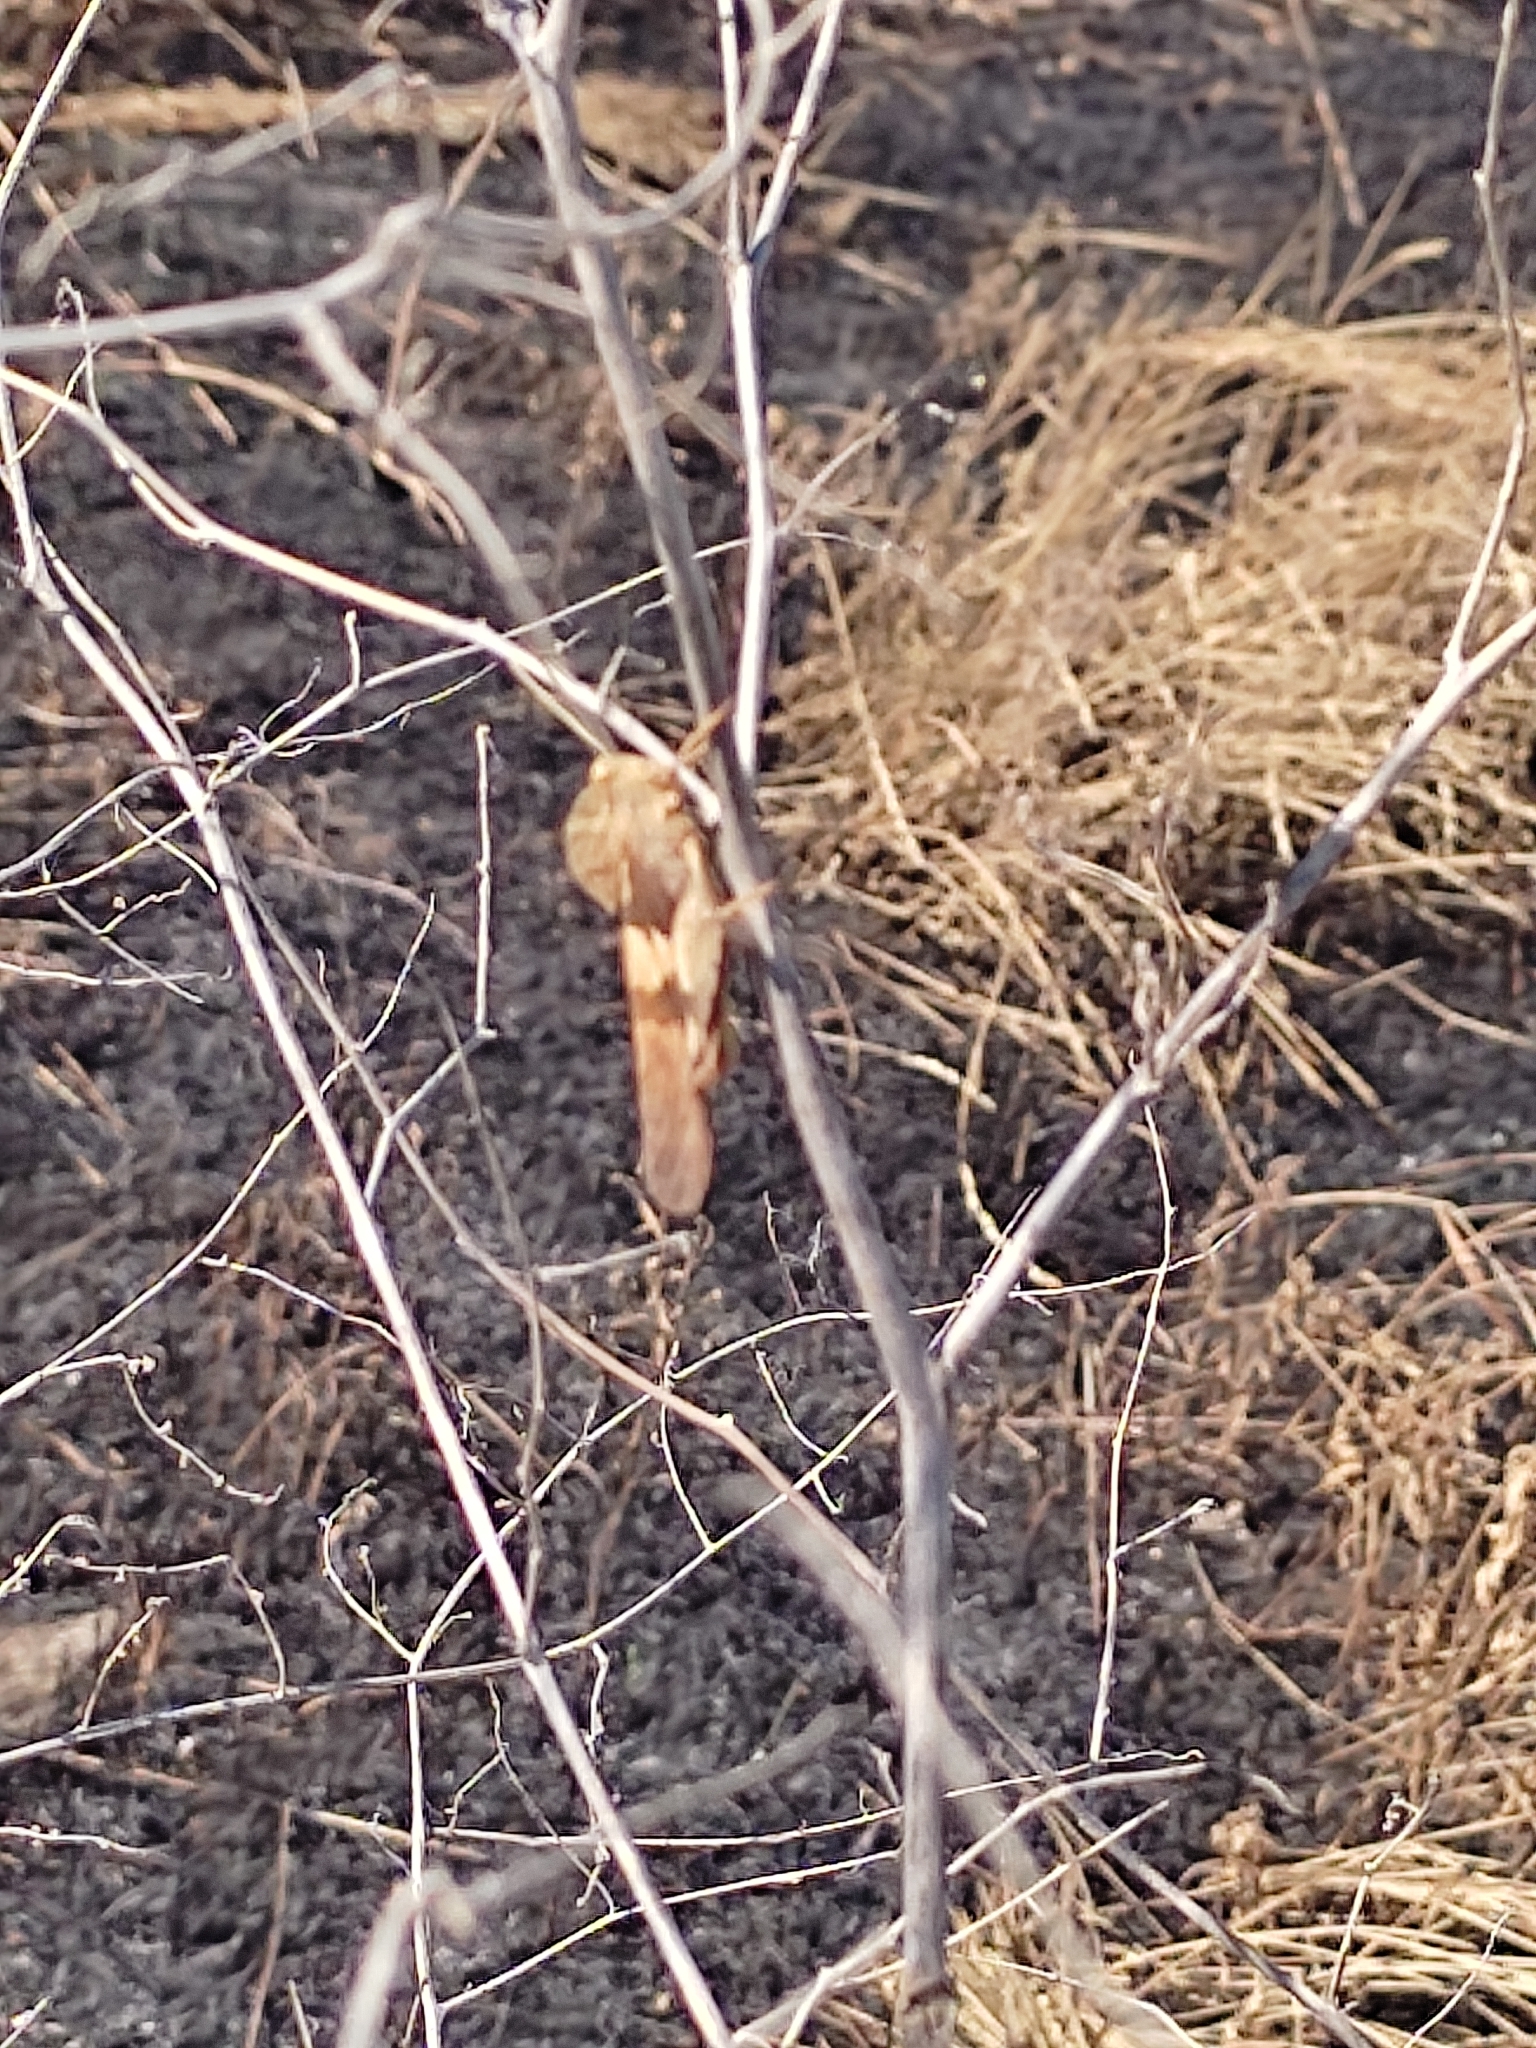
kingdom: Animalia
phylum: Arthropoda
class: Insecta
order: Orthoptera
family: Acrididae
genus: Pyrgodera
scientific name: Pyrgodera armata
